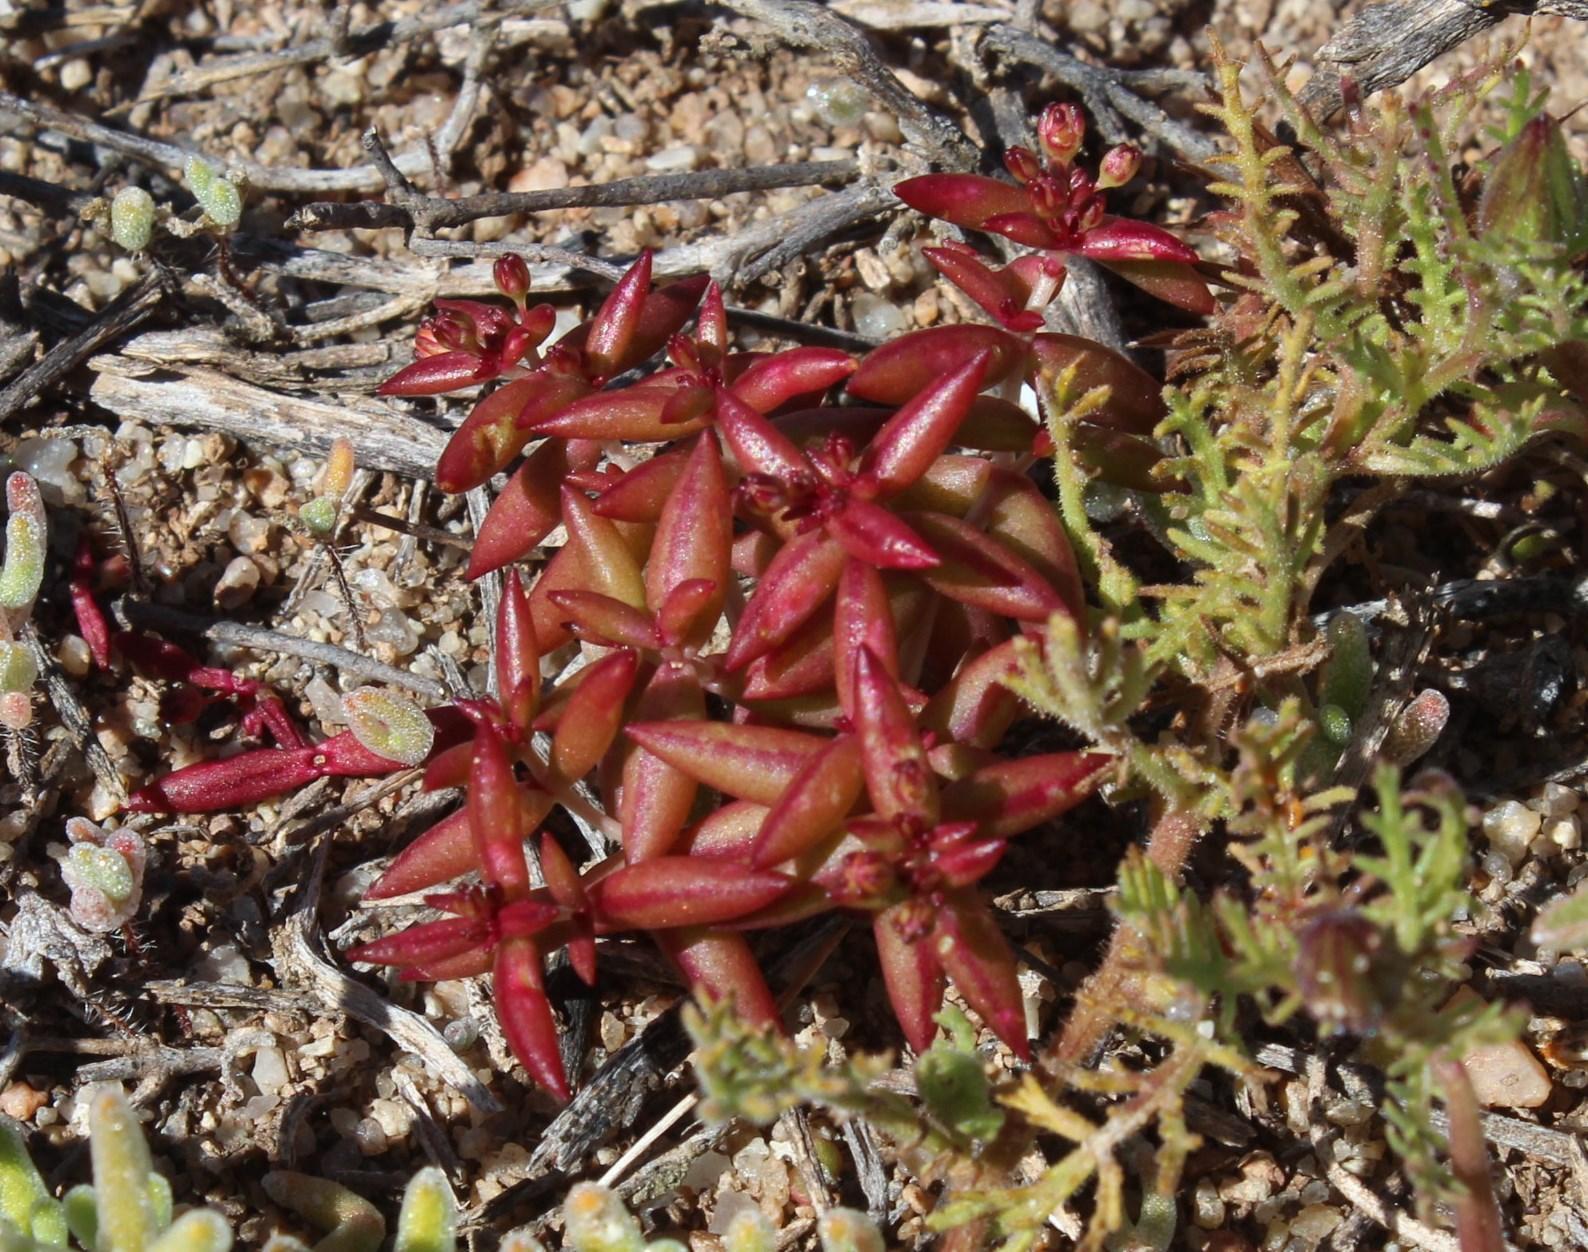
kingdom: Plantae
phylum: Tracheophyta
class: Magnoliopsida
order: Saxifragales
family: Crassulaceae
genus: Crassula
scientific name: Crassula expansa
